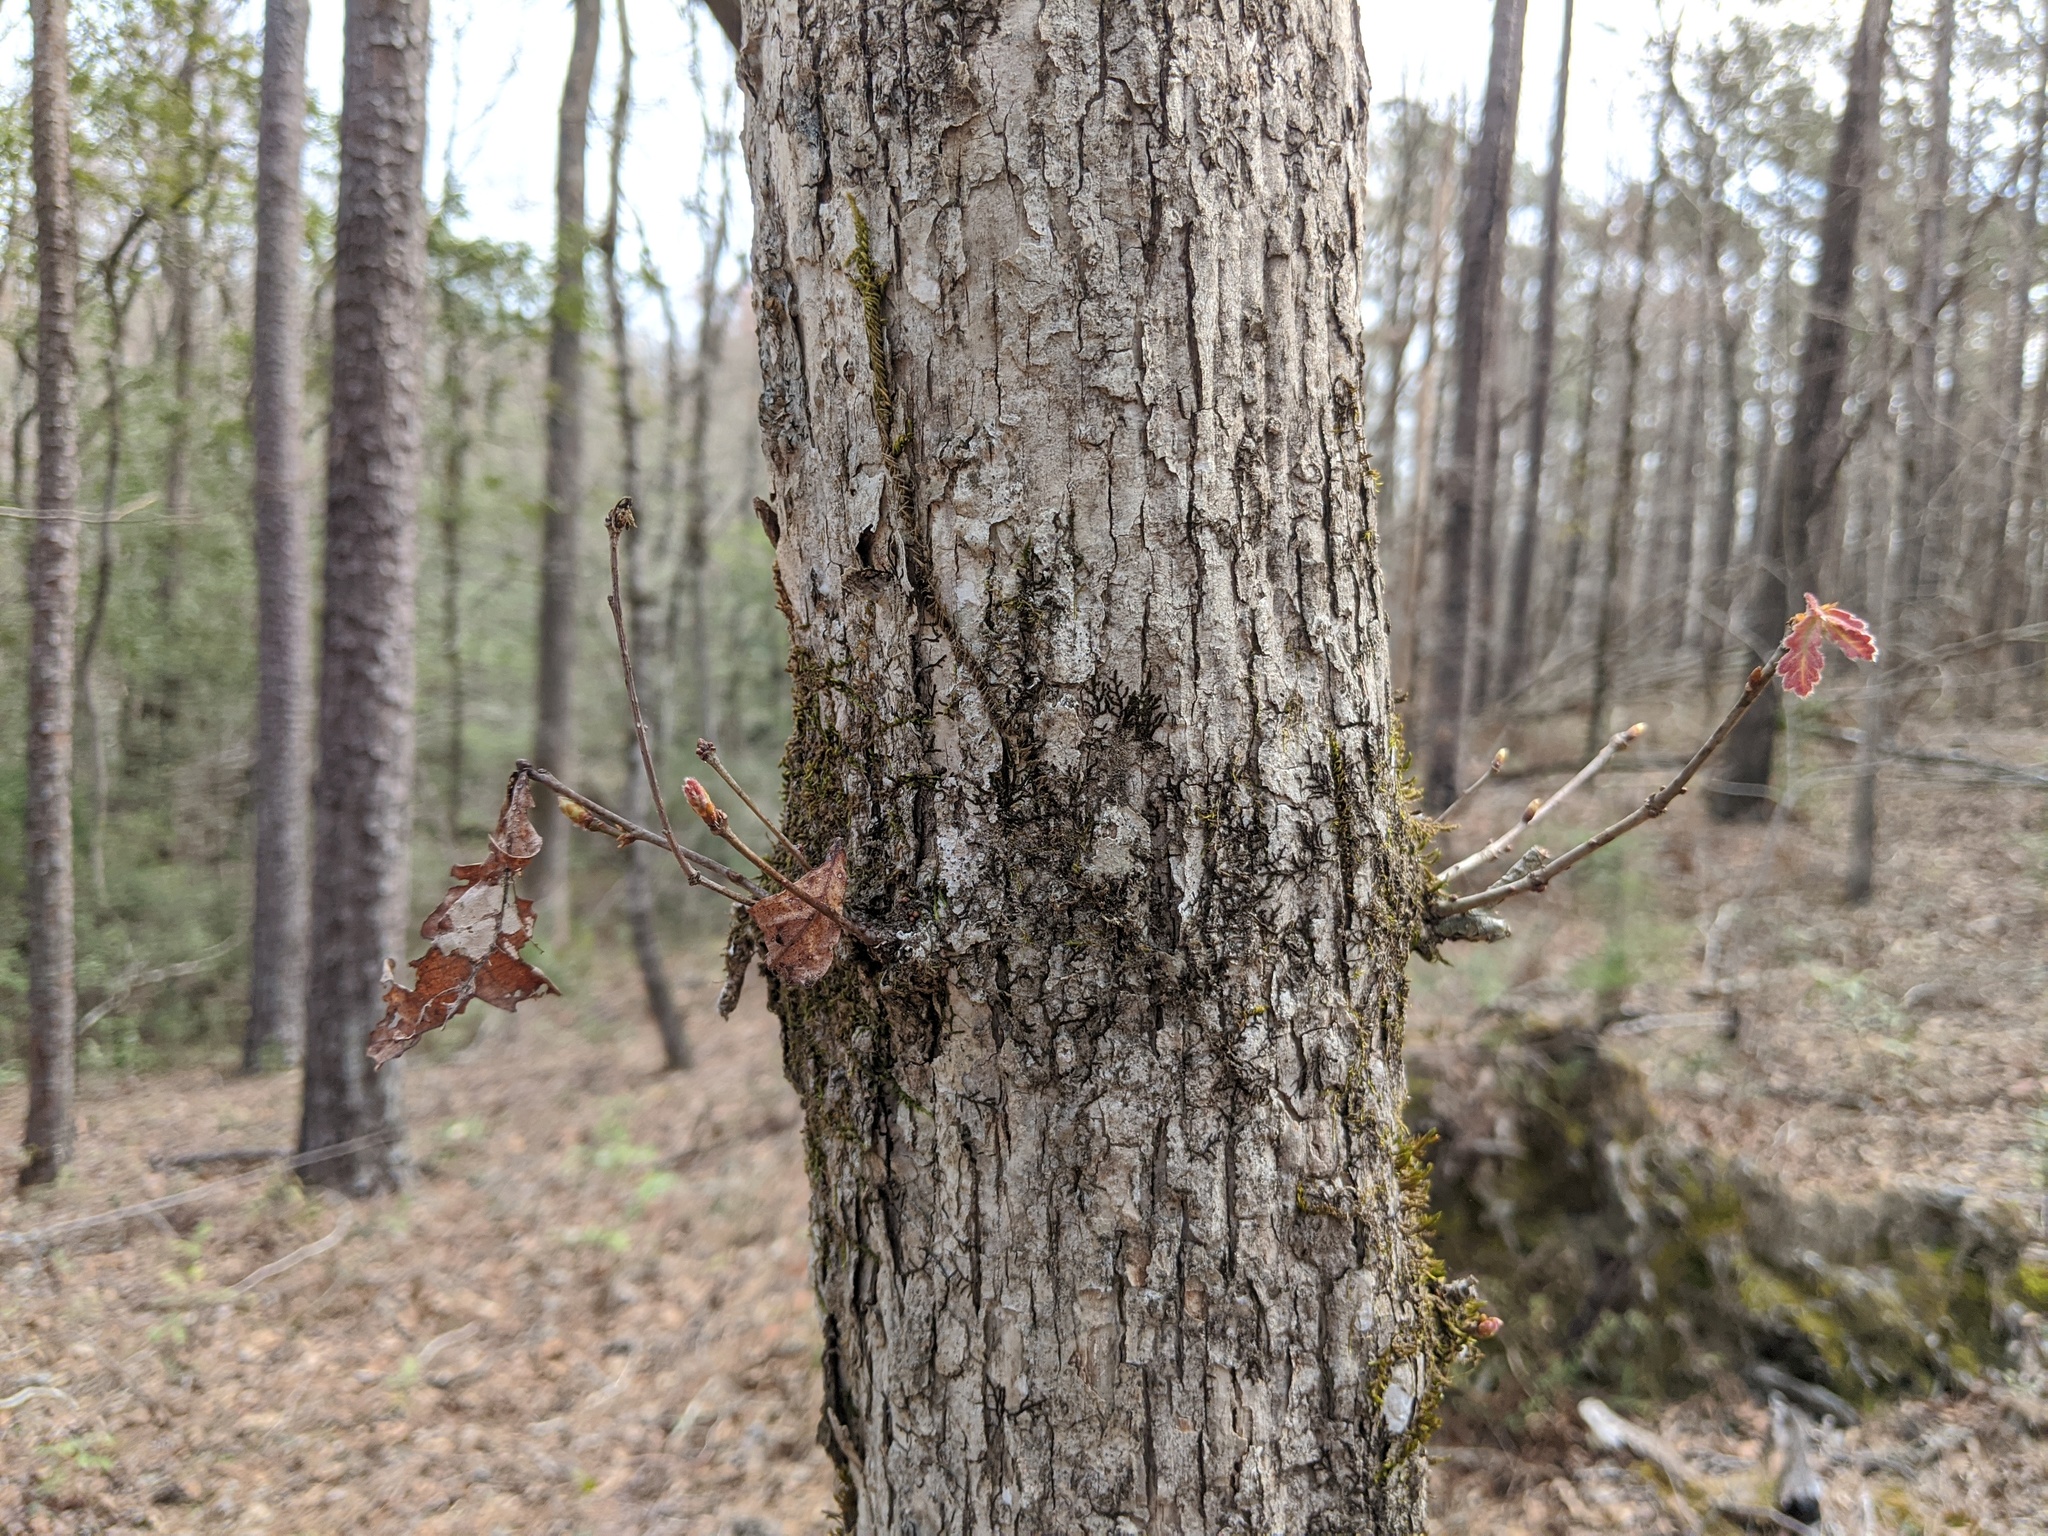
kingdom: Plantae
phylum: Tracheophyta
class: Magnoliopsida
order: Fagales
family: Fagaceae
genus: Quercus
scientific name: Quercus alba
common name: White oak
